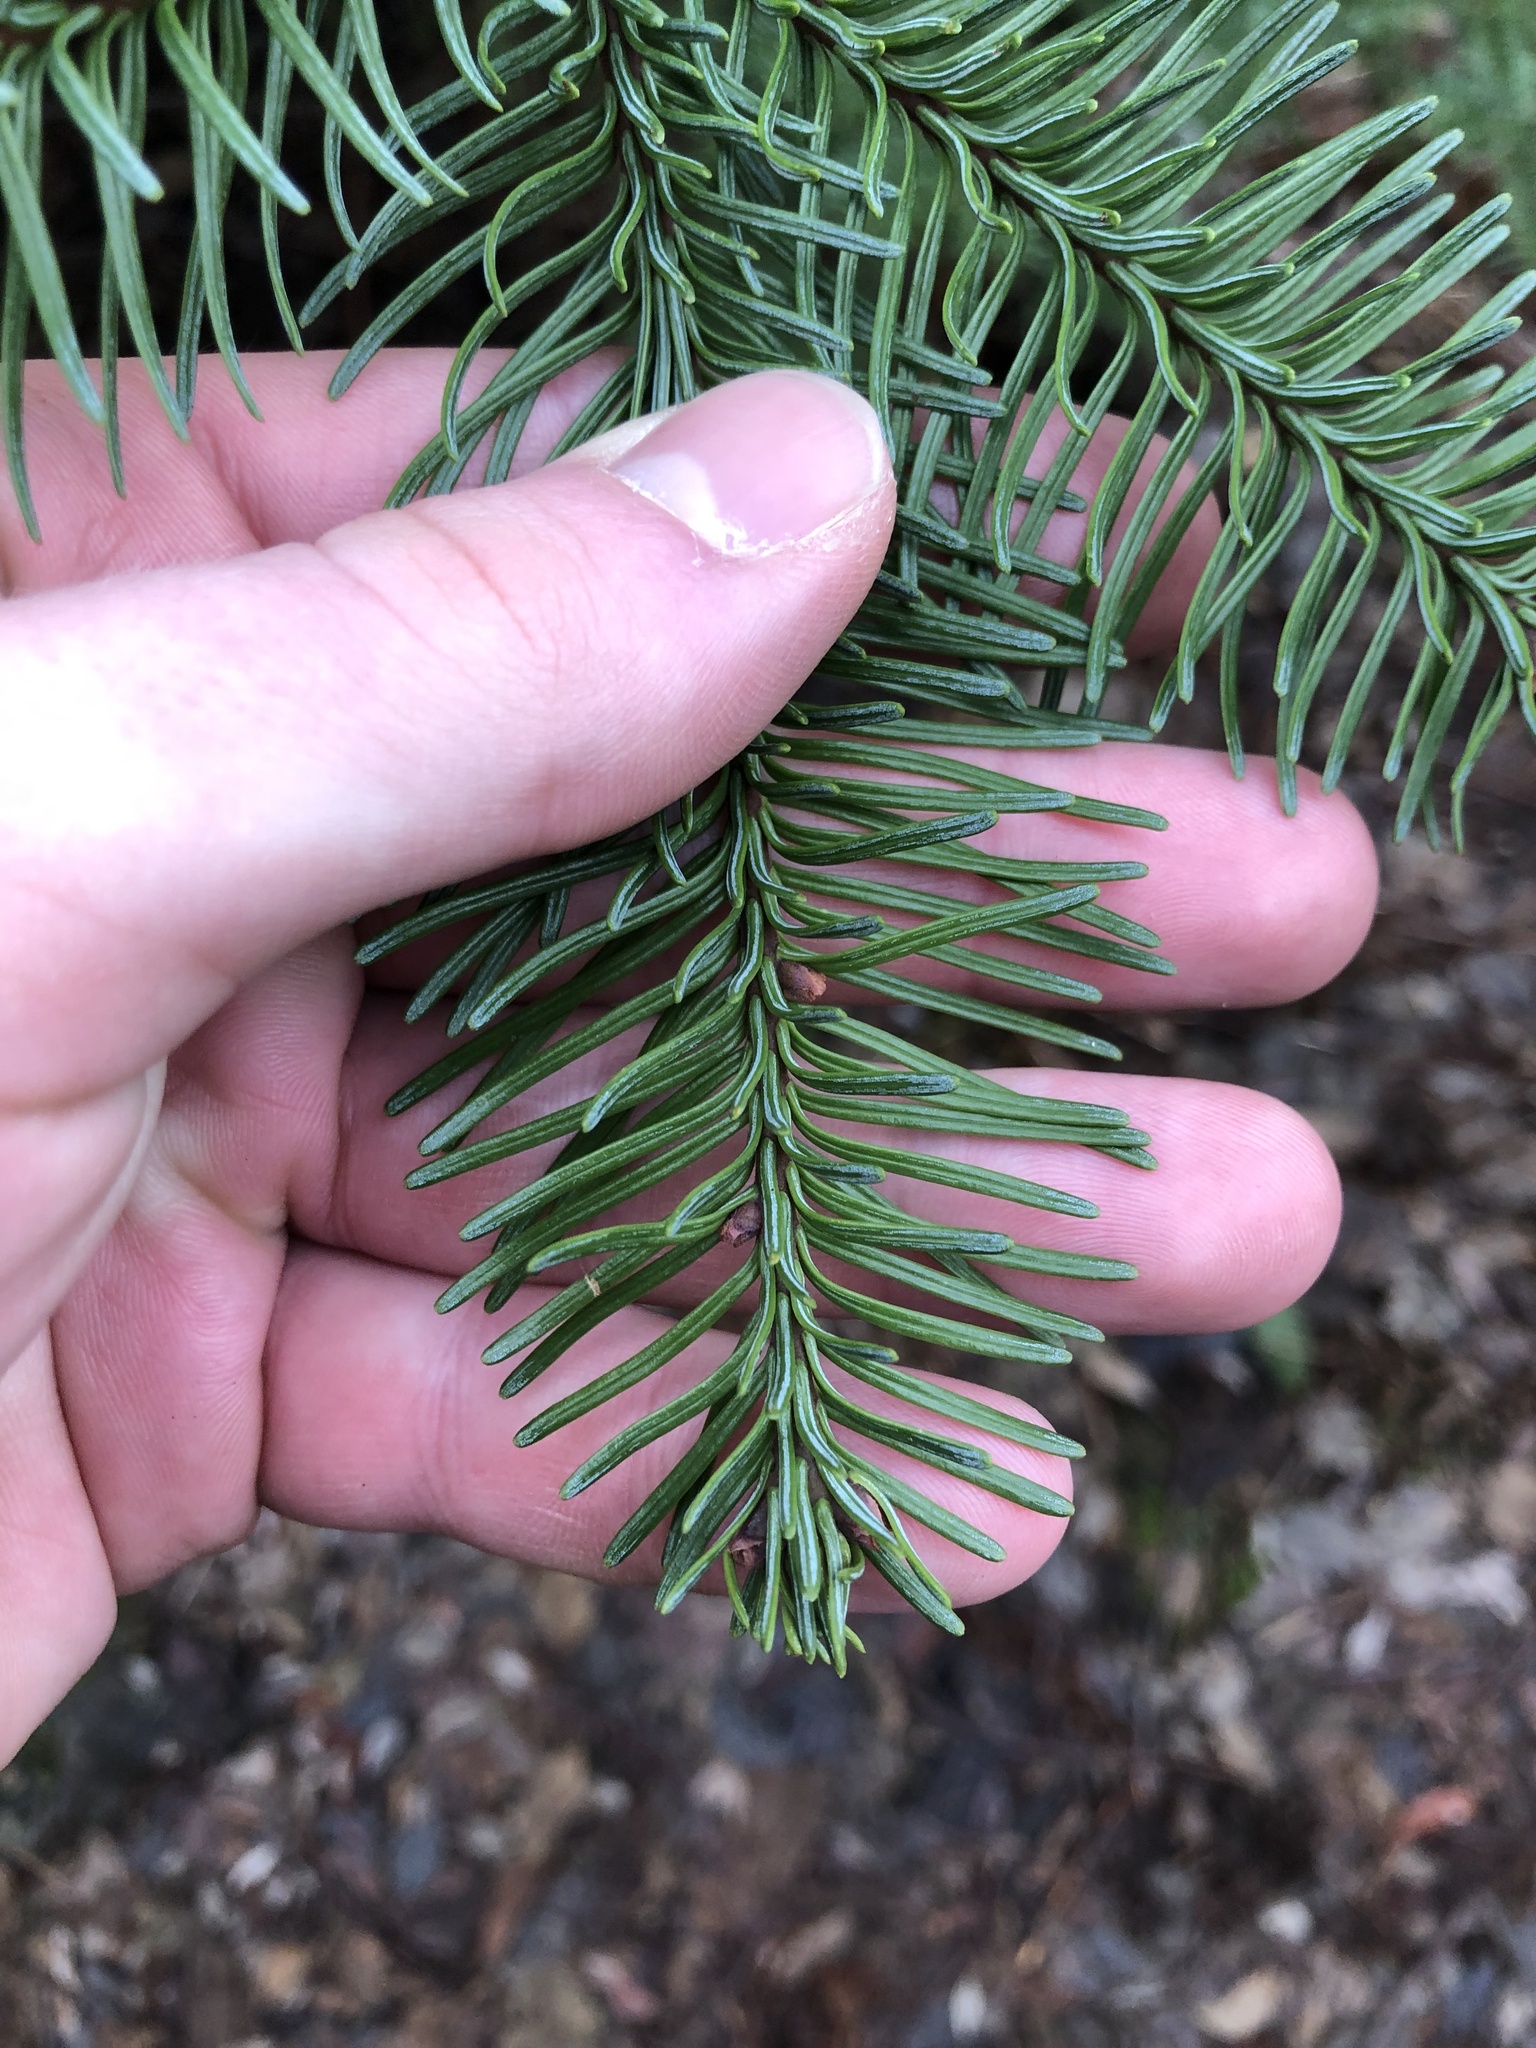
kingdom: Plantae
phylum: Tracheophyta
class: Pinopsida
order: Pinales
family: Pinaceae
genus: Abies
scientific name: Abies procera
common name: Noble fir
